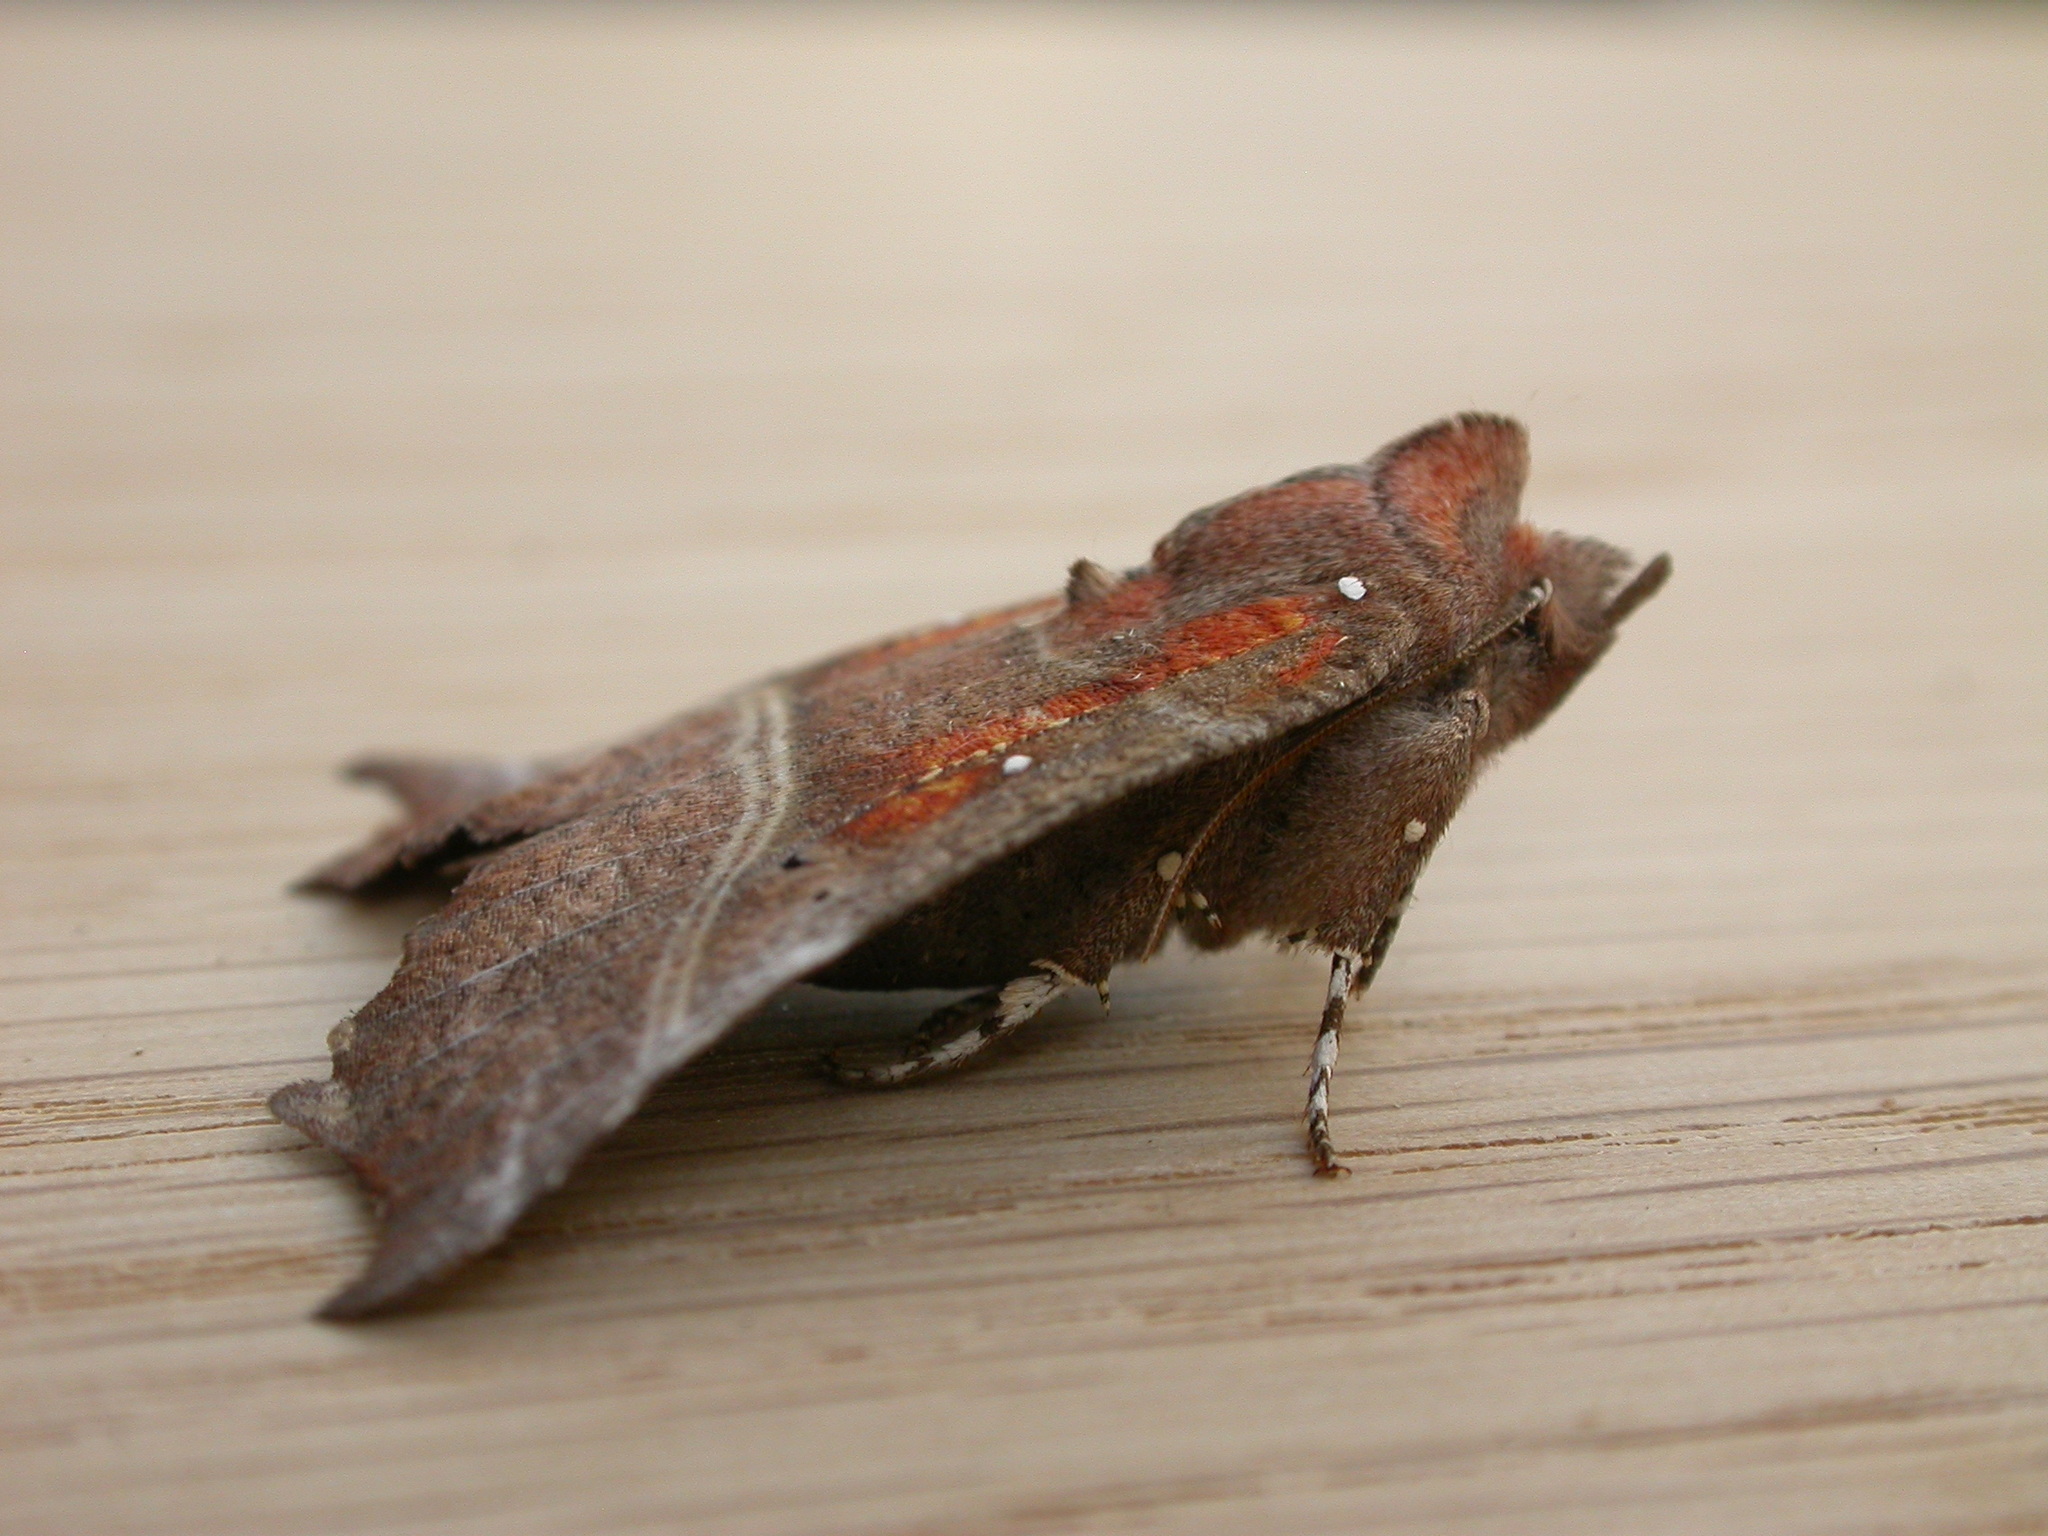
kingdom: Animalia
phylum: Arthropoda
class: Insecta
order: Lepidoptera
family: Erebidae
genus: Scoliopteryx
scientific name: Scoliopteryx libatrix
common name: Herald
